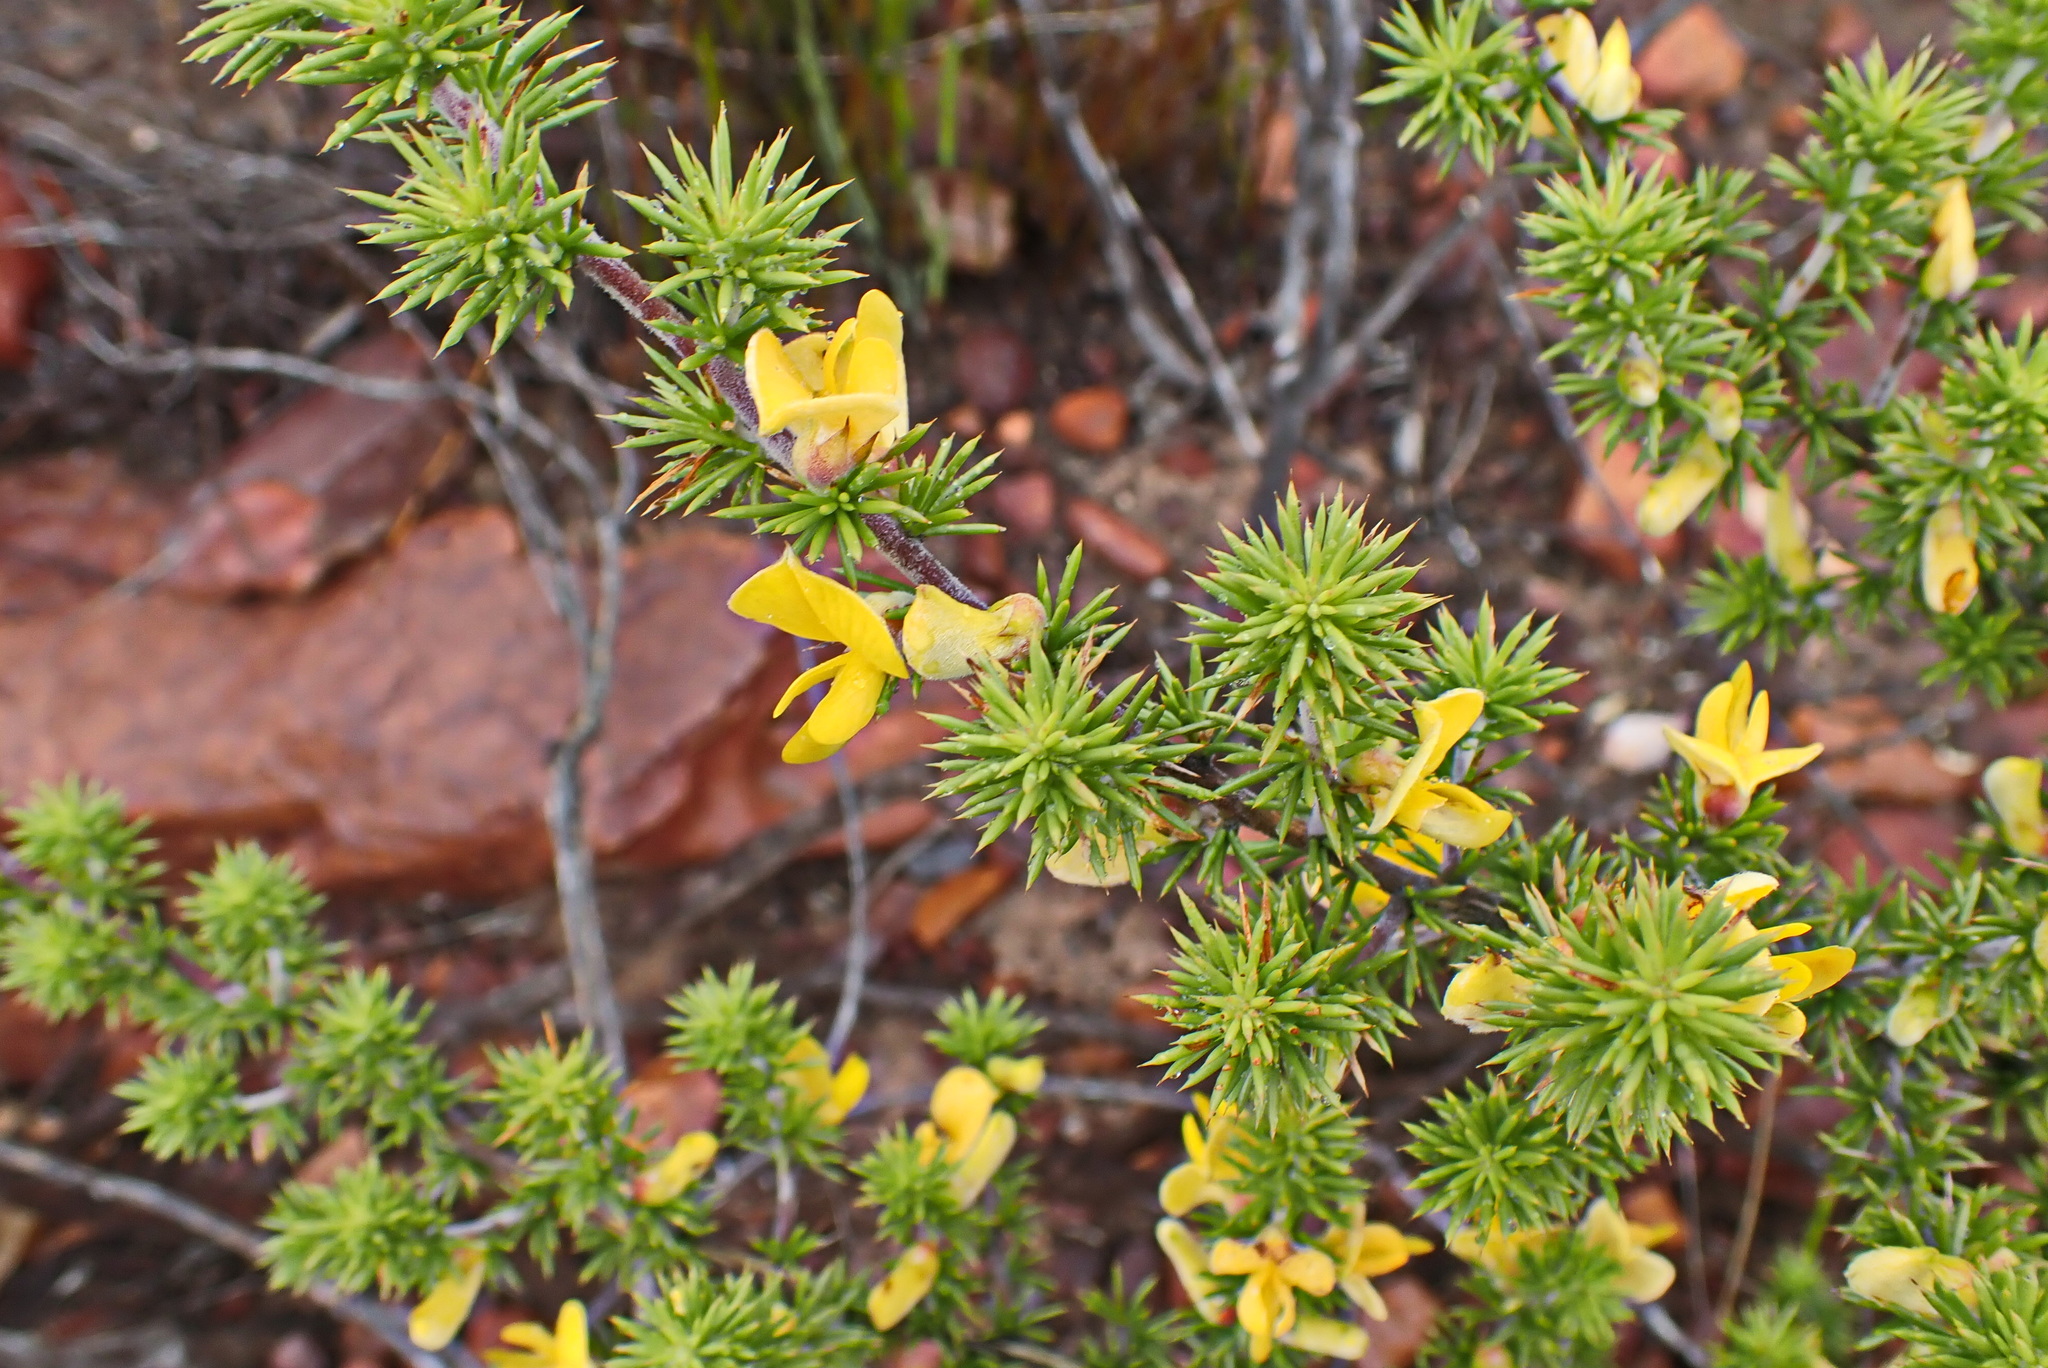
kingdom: Plantae
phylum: Tracheophyta
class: Magnoliopsida
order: Fabales
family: Fabaceae
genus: Aspalathus
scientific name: Aspalathus hirta
